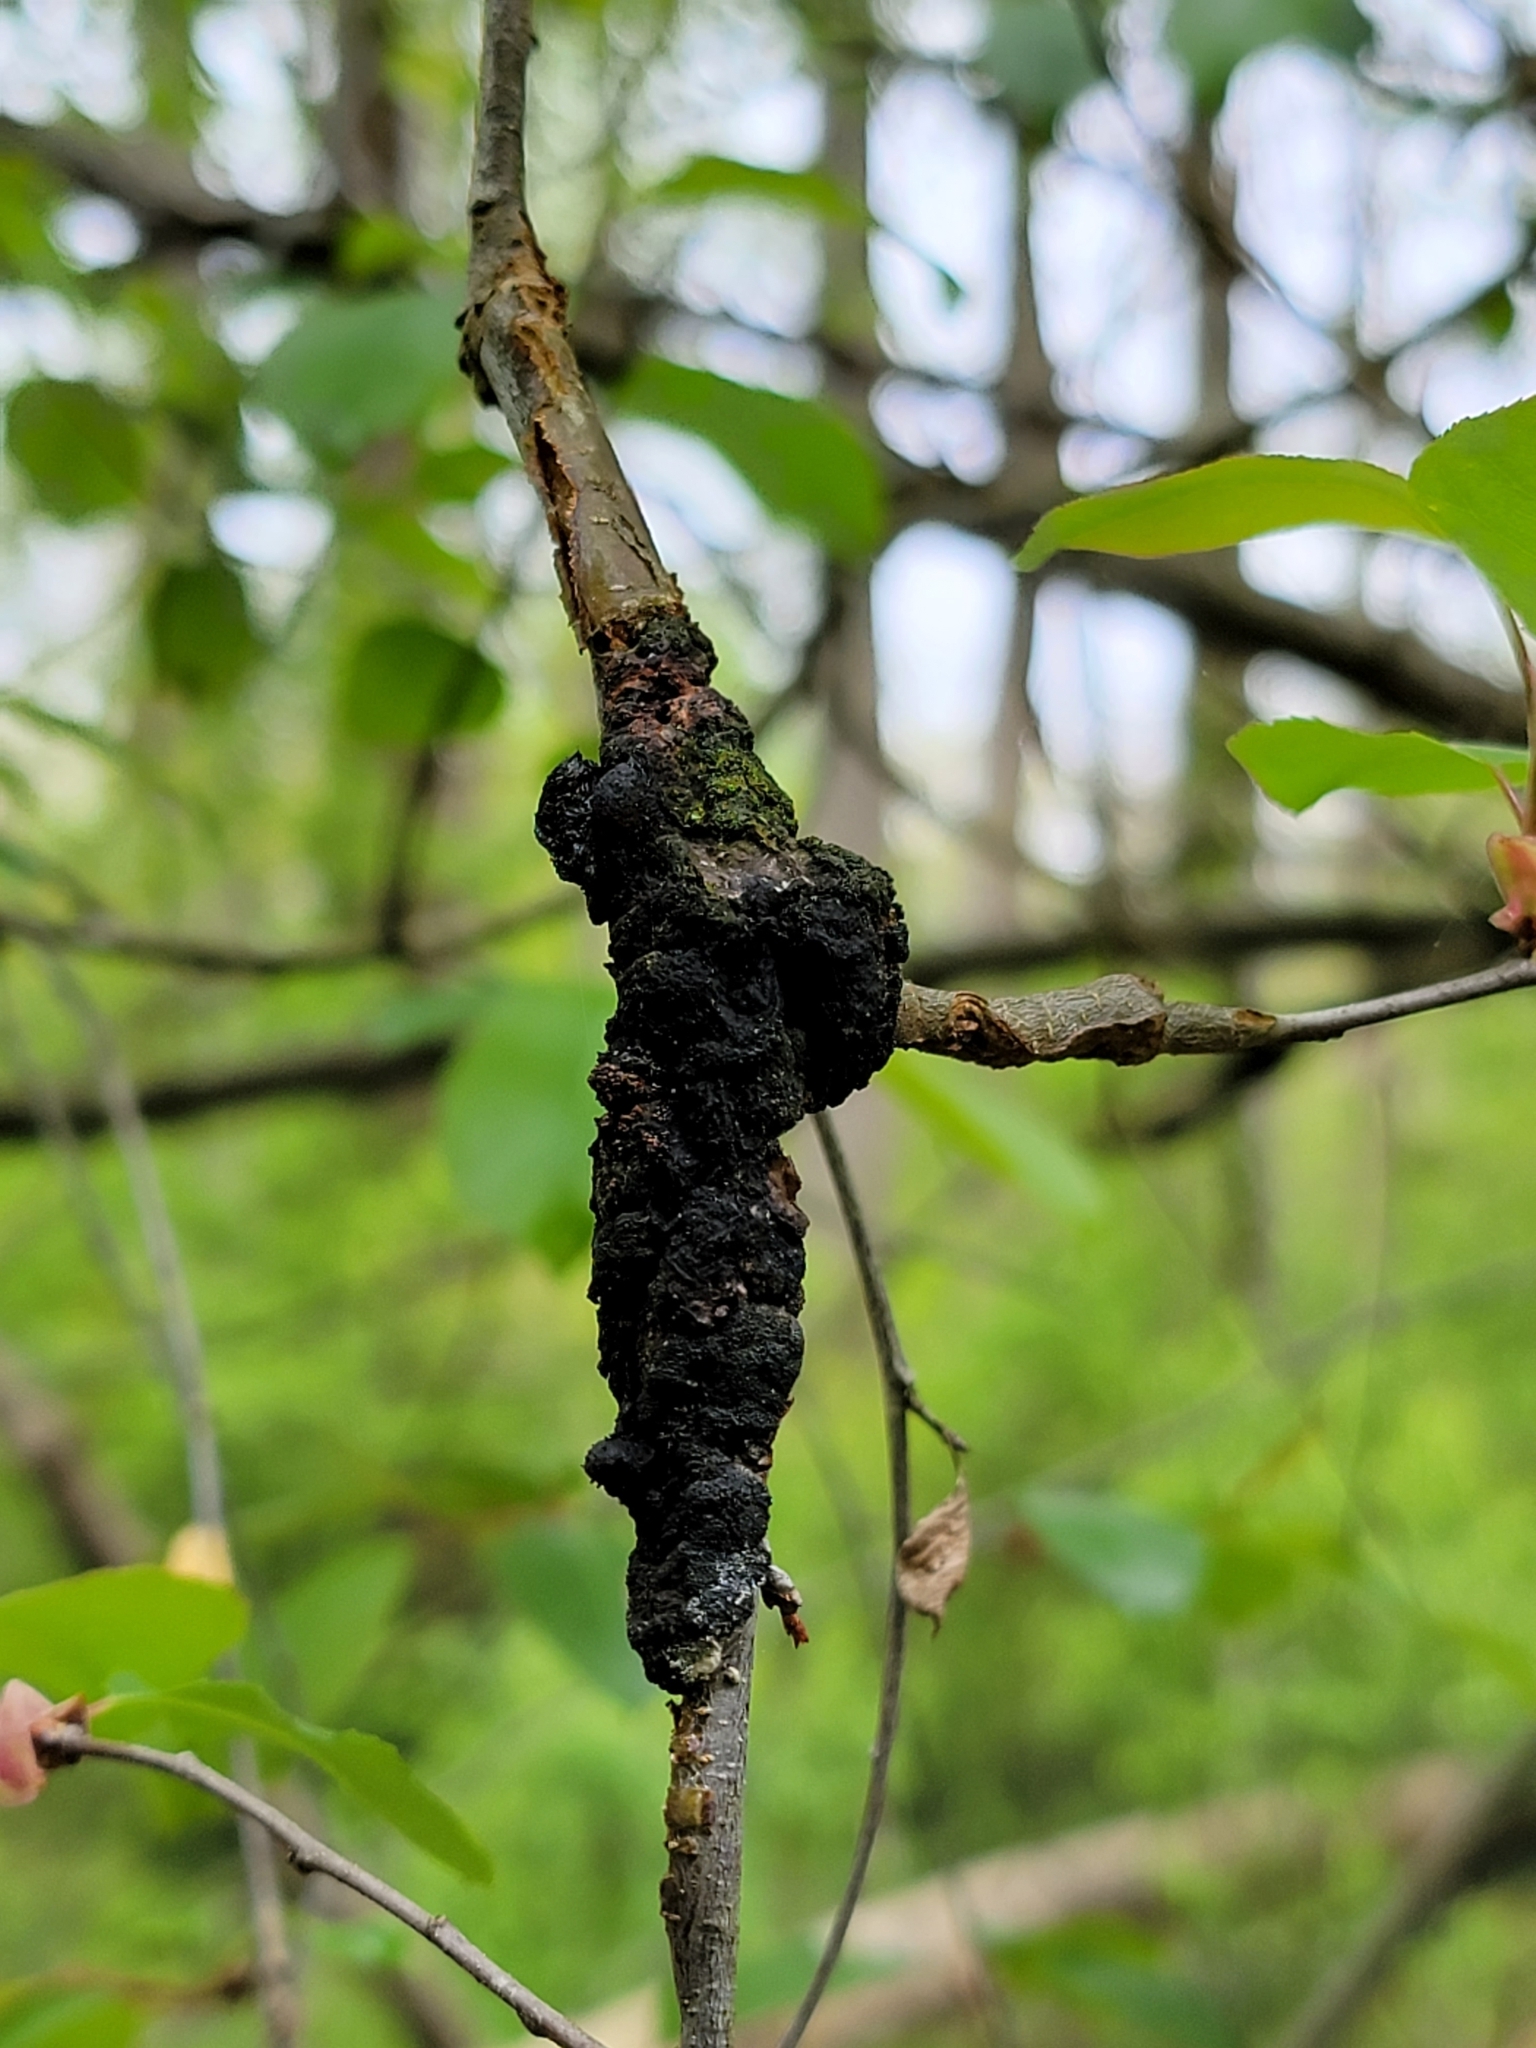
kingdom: Fungi
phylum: Ascomycota
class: Dothideomycetes
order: Venturiales
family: Venturiaceae
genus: Apiosporina
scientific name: Apiosporina morbosa
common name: Black knot
